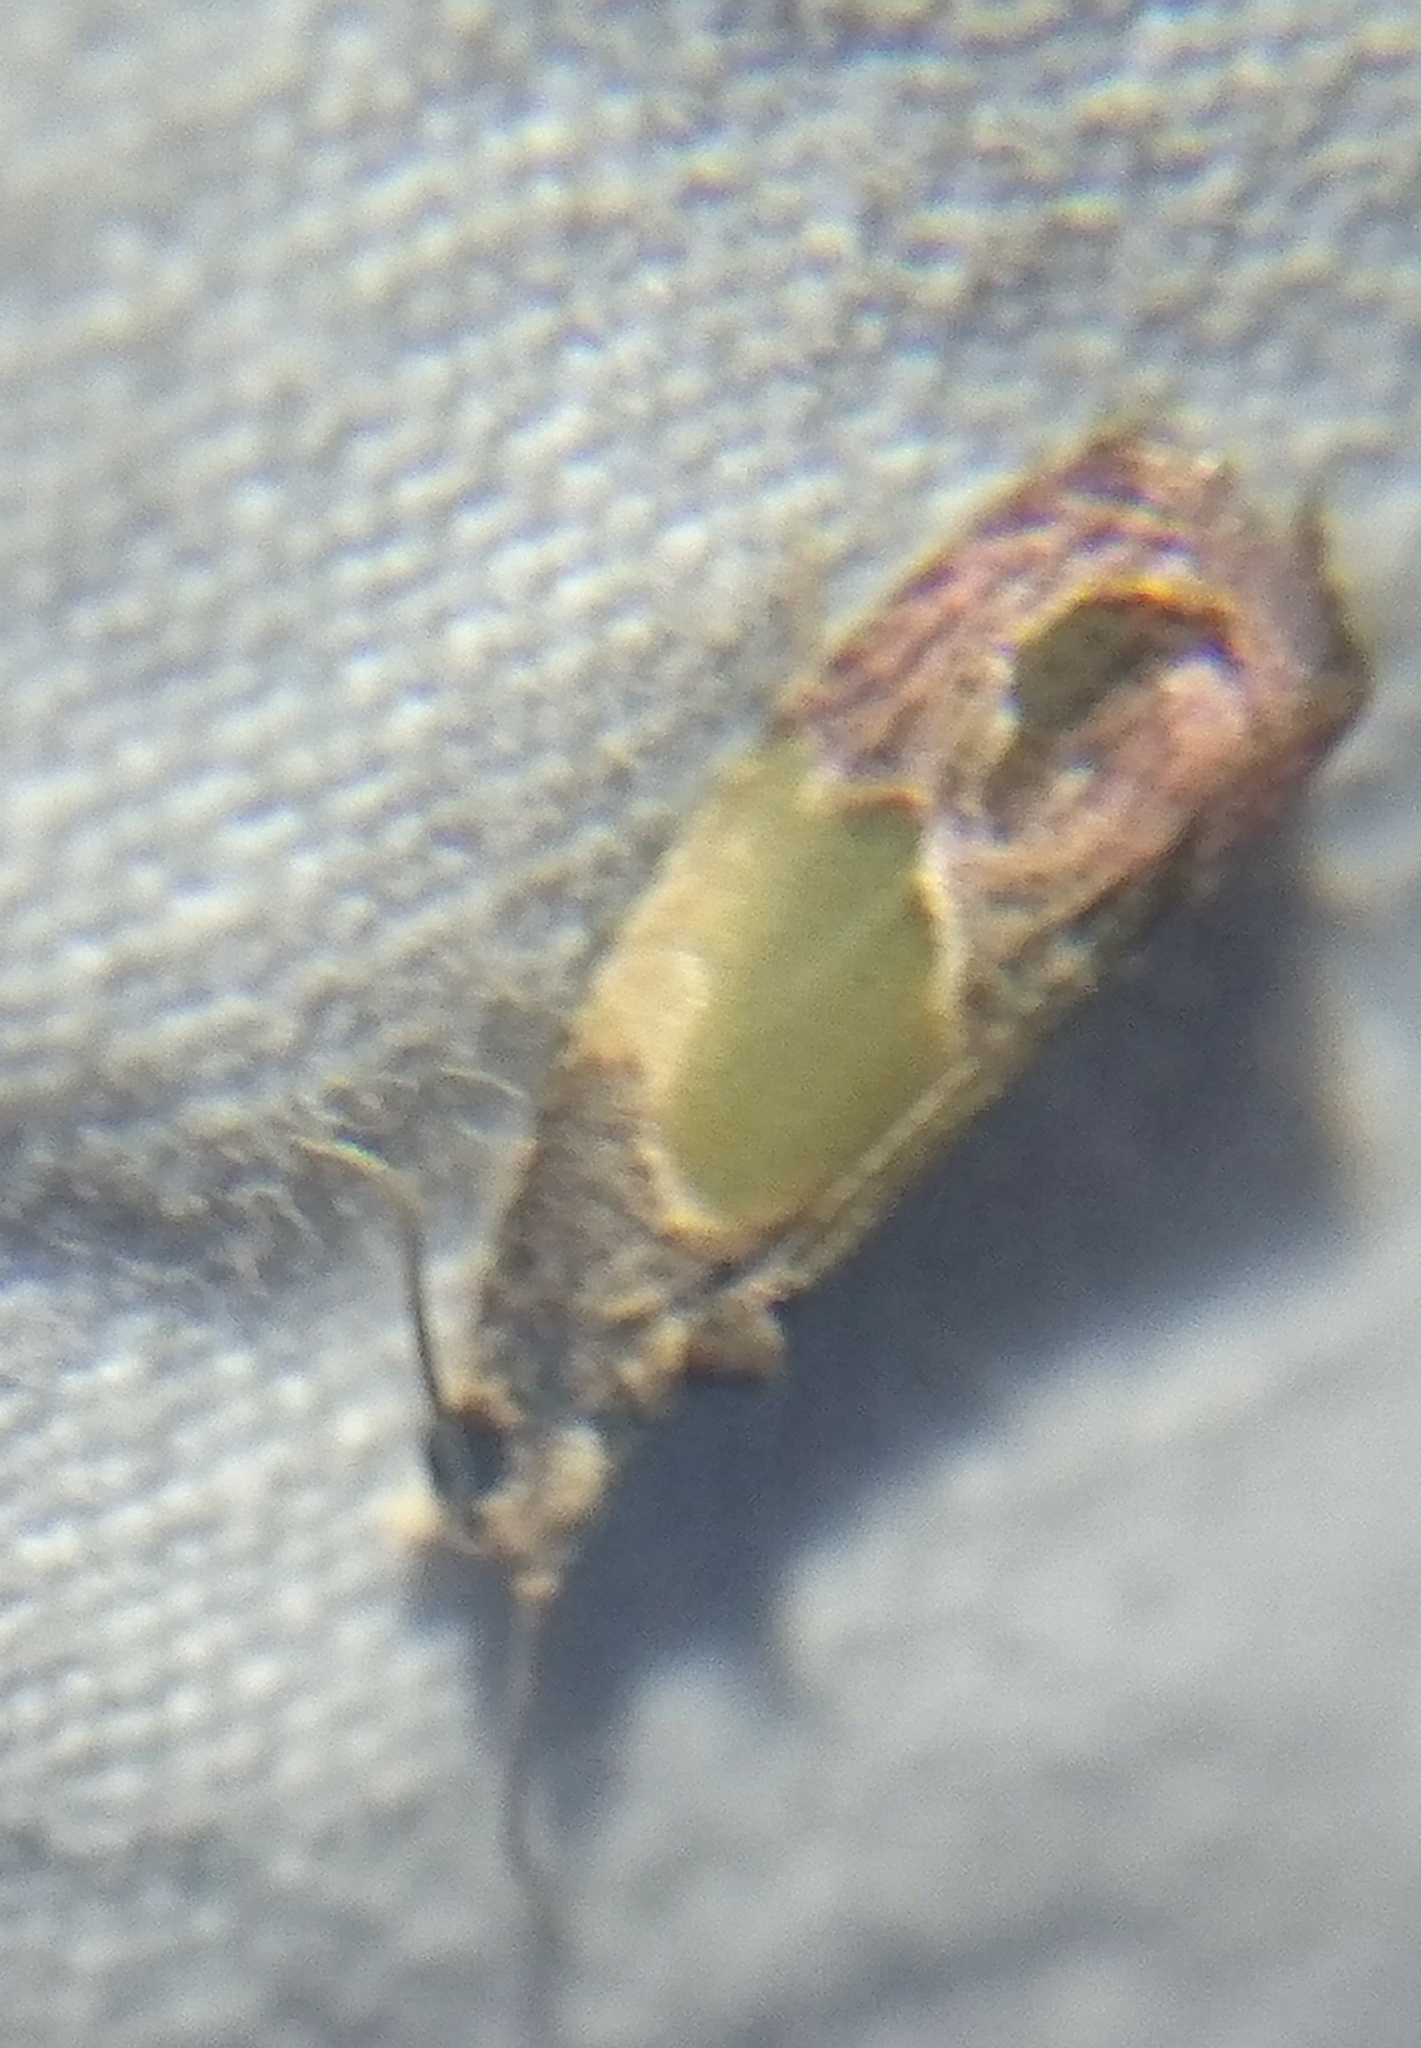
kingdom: Animalia
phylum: Arthropoda
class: Insecta
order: Lepidoptera
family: Tortricidae
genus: Eumarozia
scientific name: Eumarozia malachitana
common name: Sculptured moth
